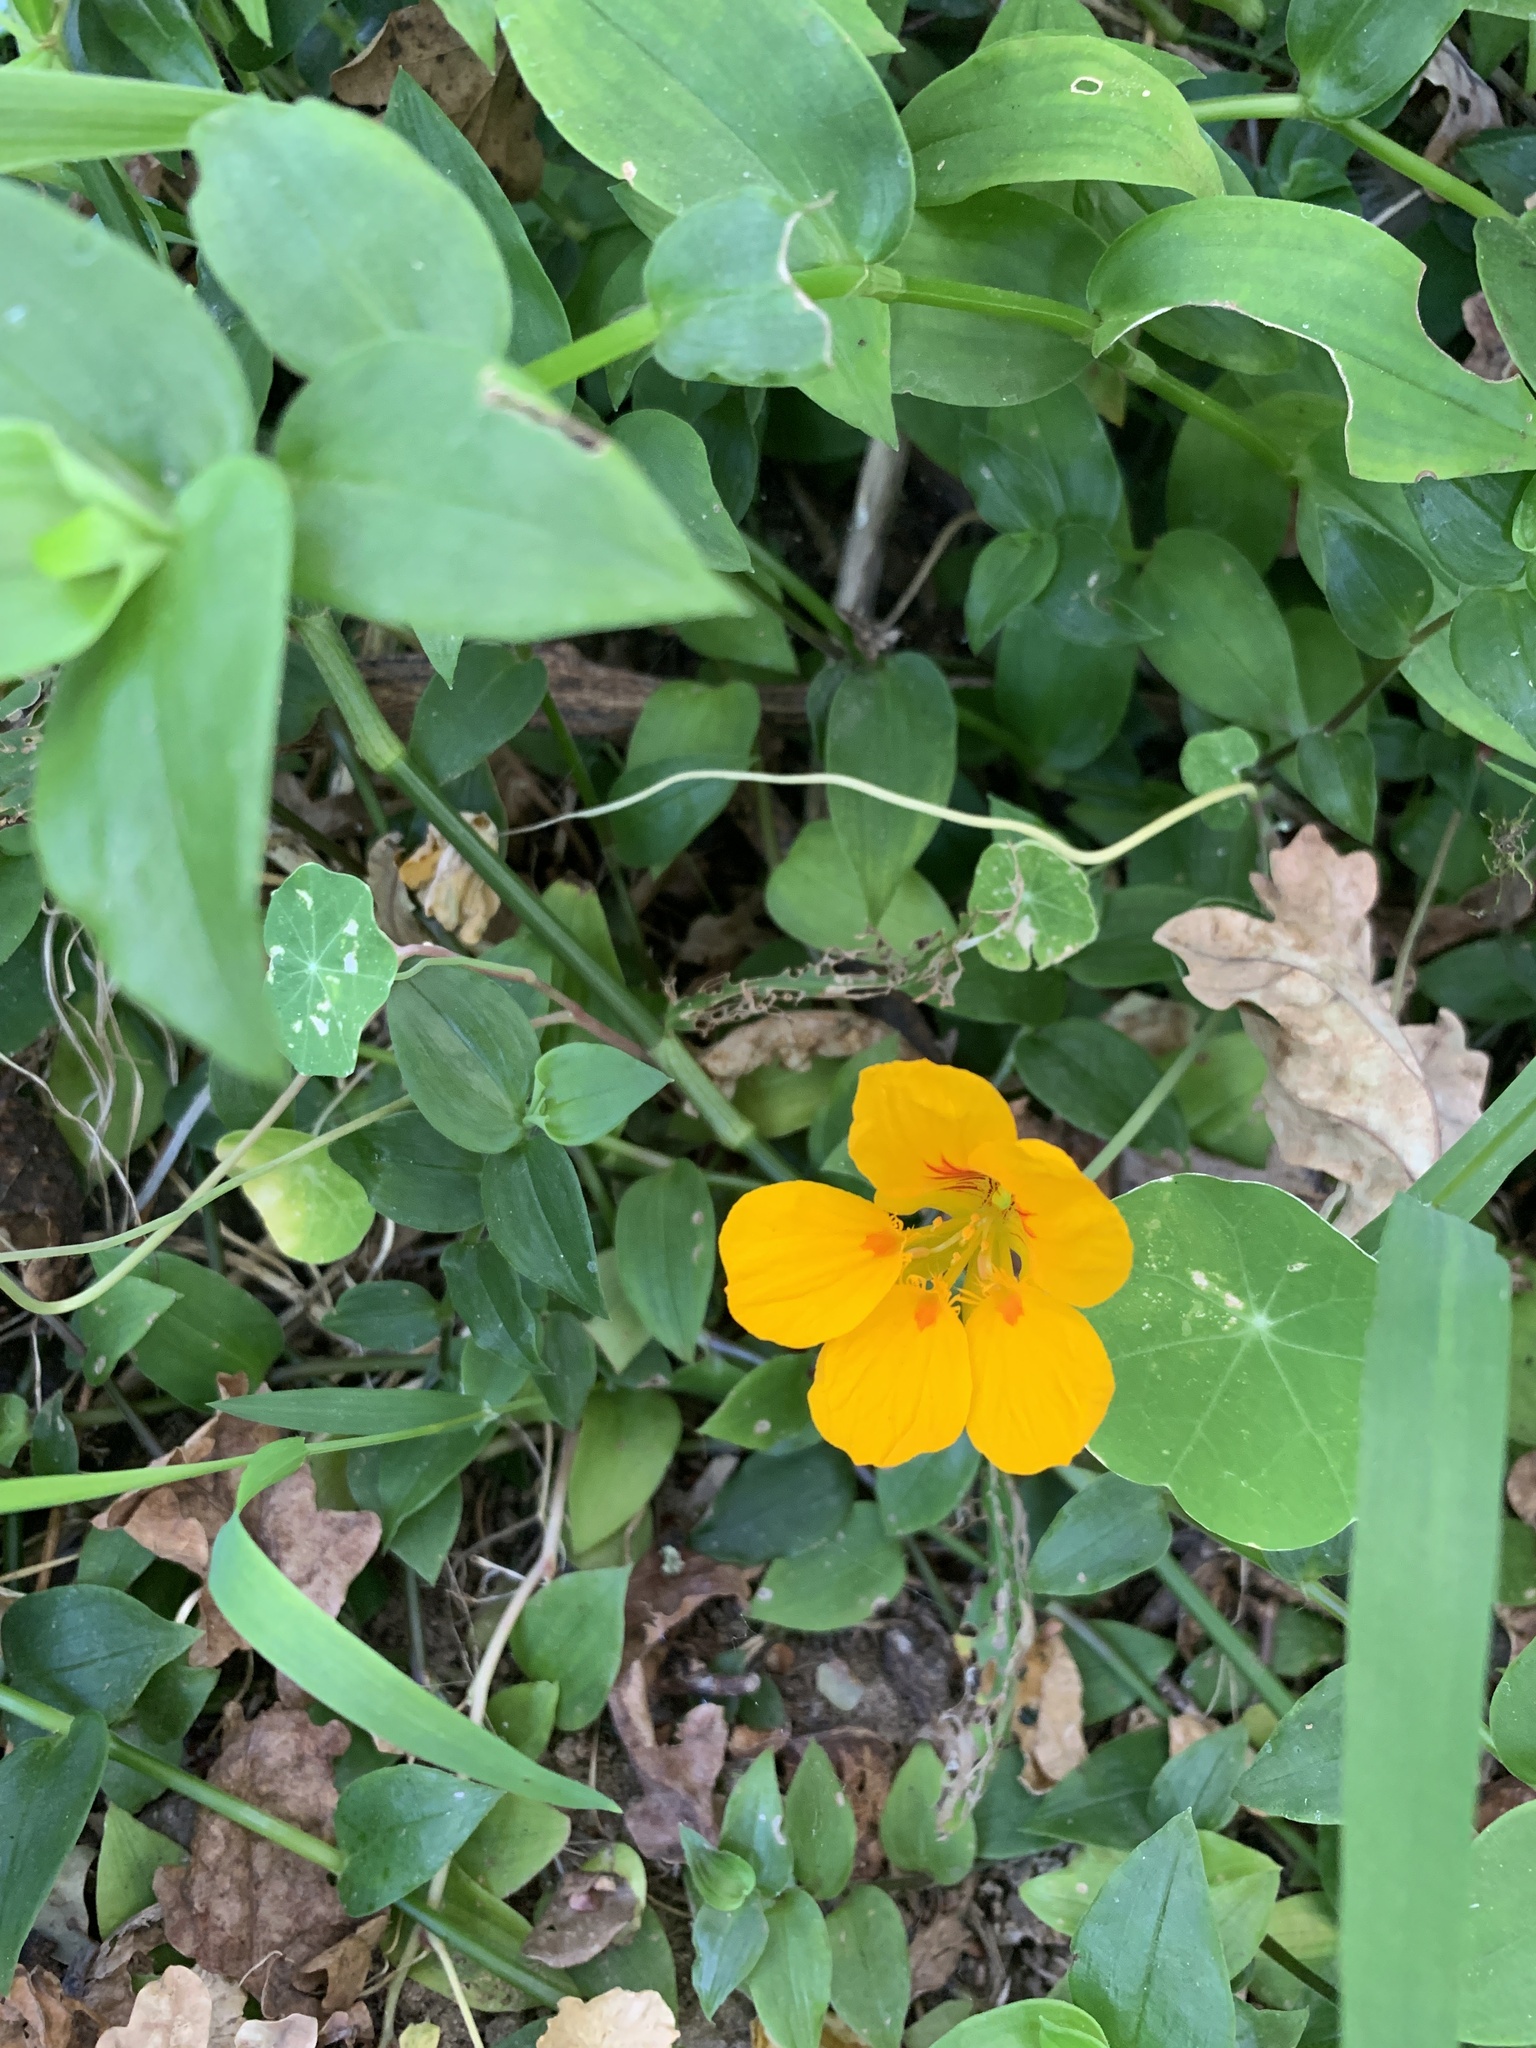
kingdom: Plantae
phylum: Tracheophyta
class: Magnoliopsida
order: Brassicales
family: Tropaeolaceae
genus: Tropaeolum
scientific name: Tropaeolum majus
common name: Nasturtium
